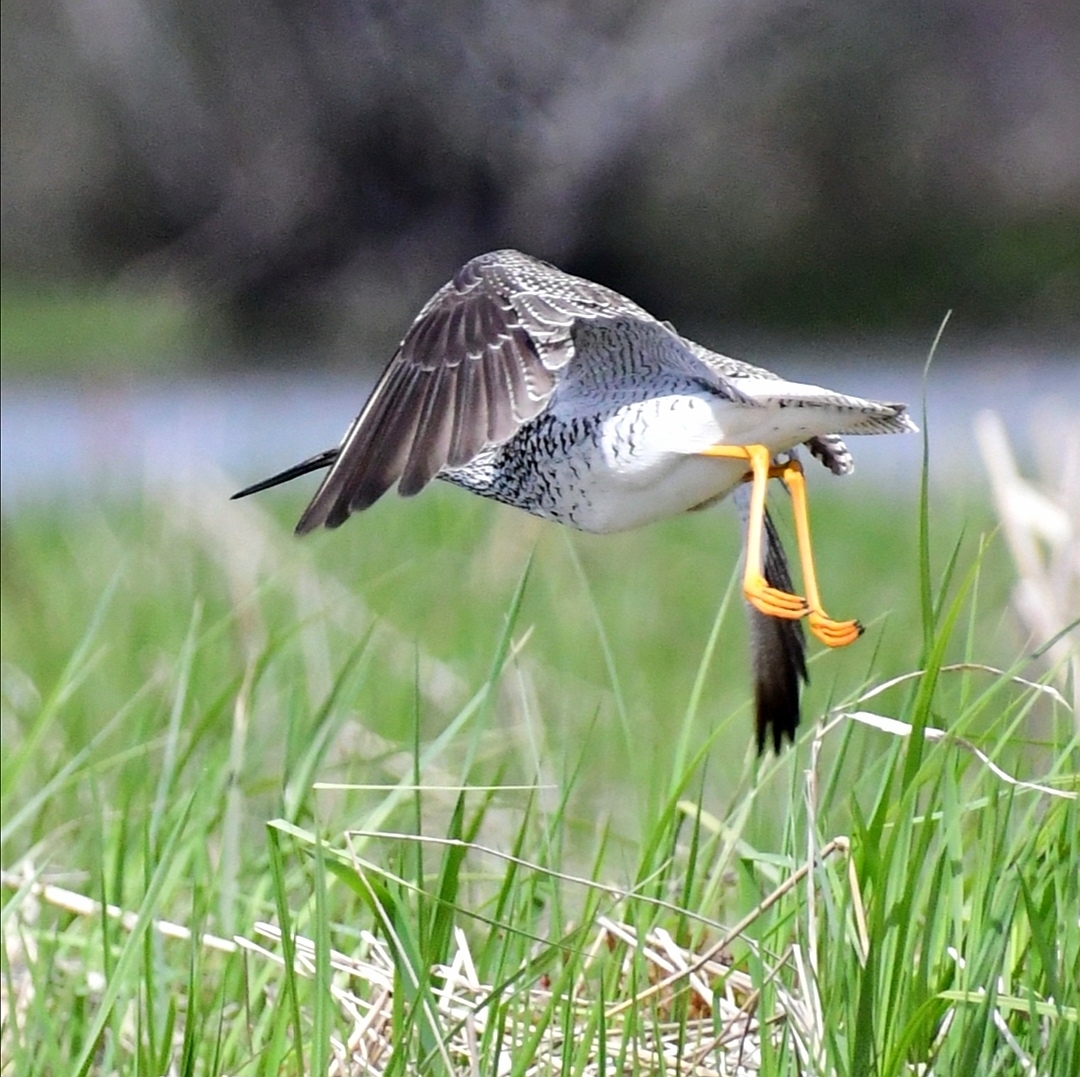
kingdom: Animalia
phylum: Chordata
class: Aves
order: Charadriiformes
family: Scolopacidae
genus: Tringa
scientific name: Tringa melanoleuca
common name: Greater yellowlegs
